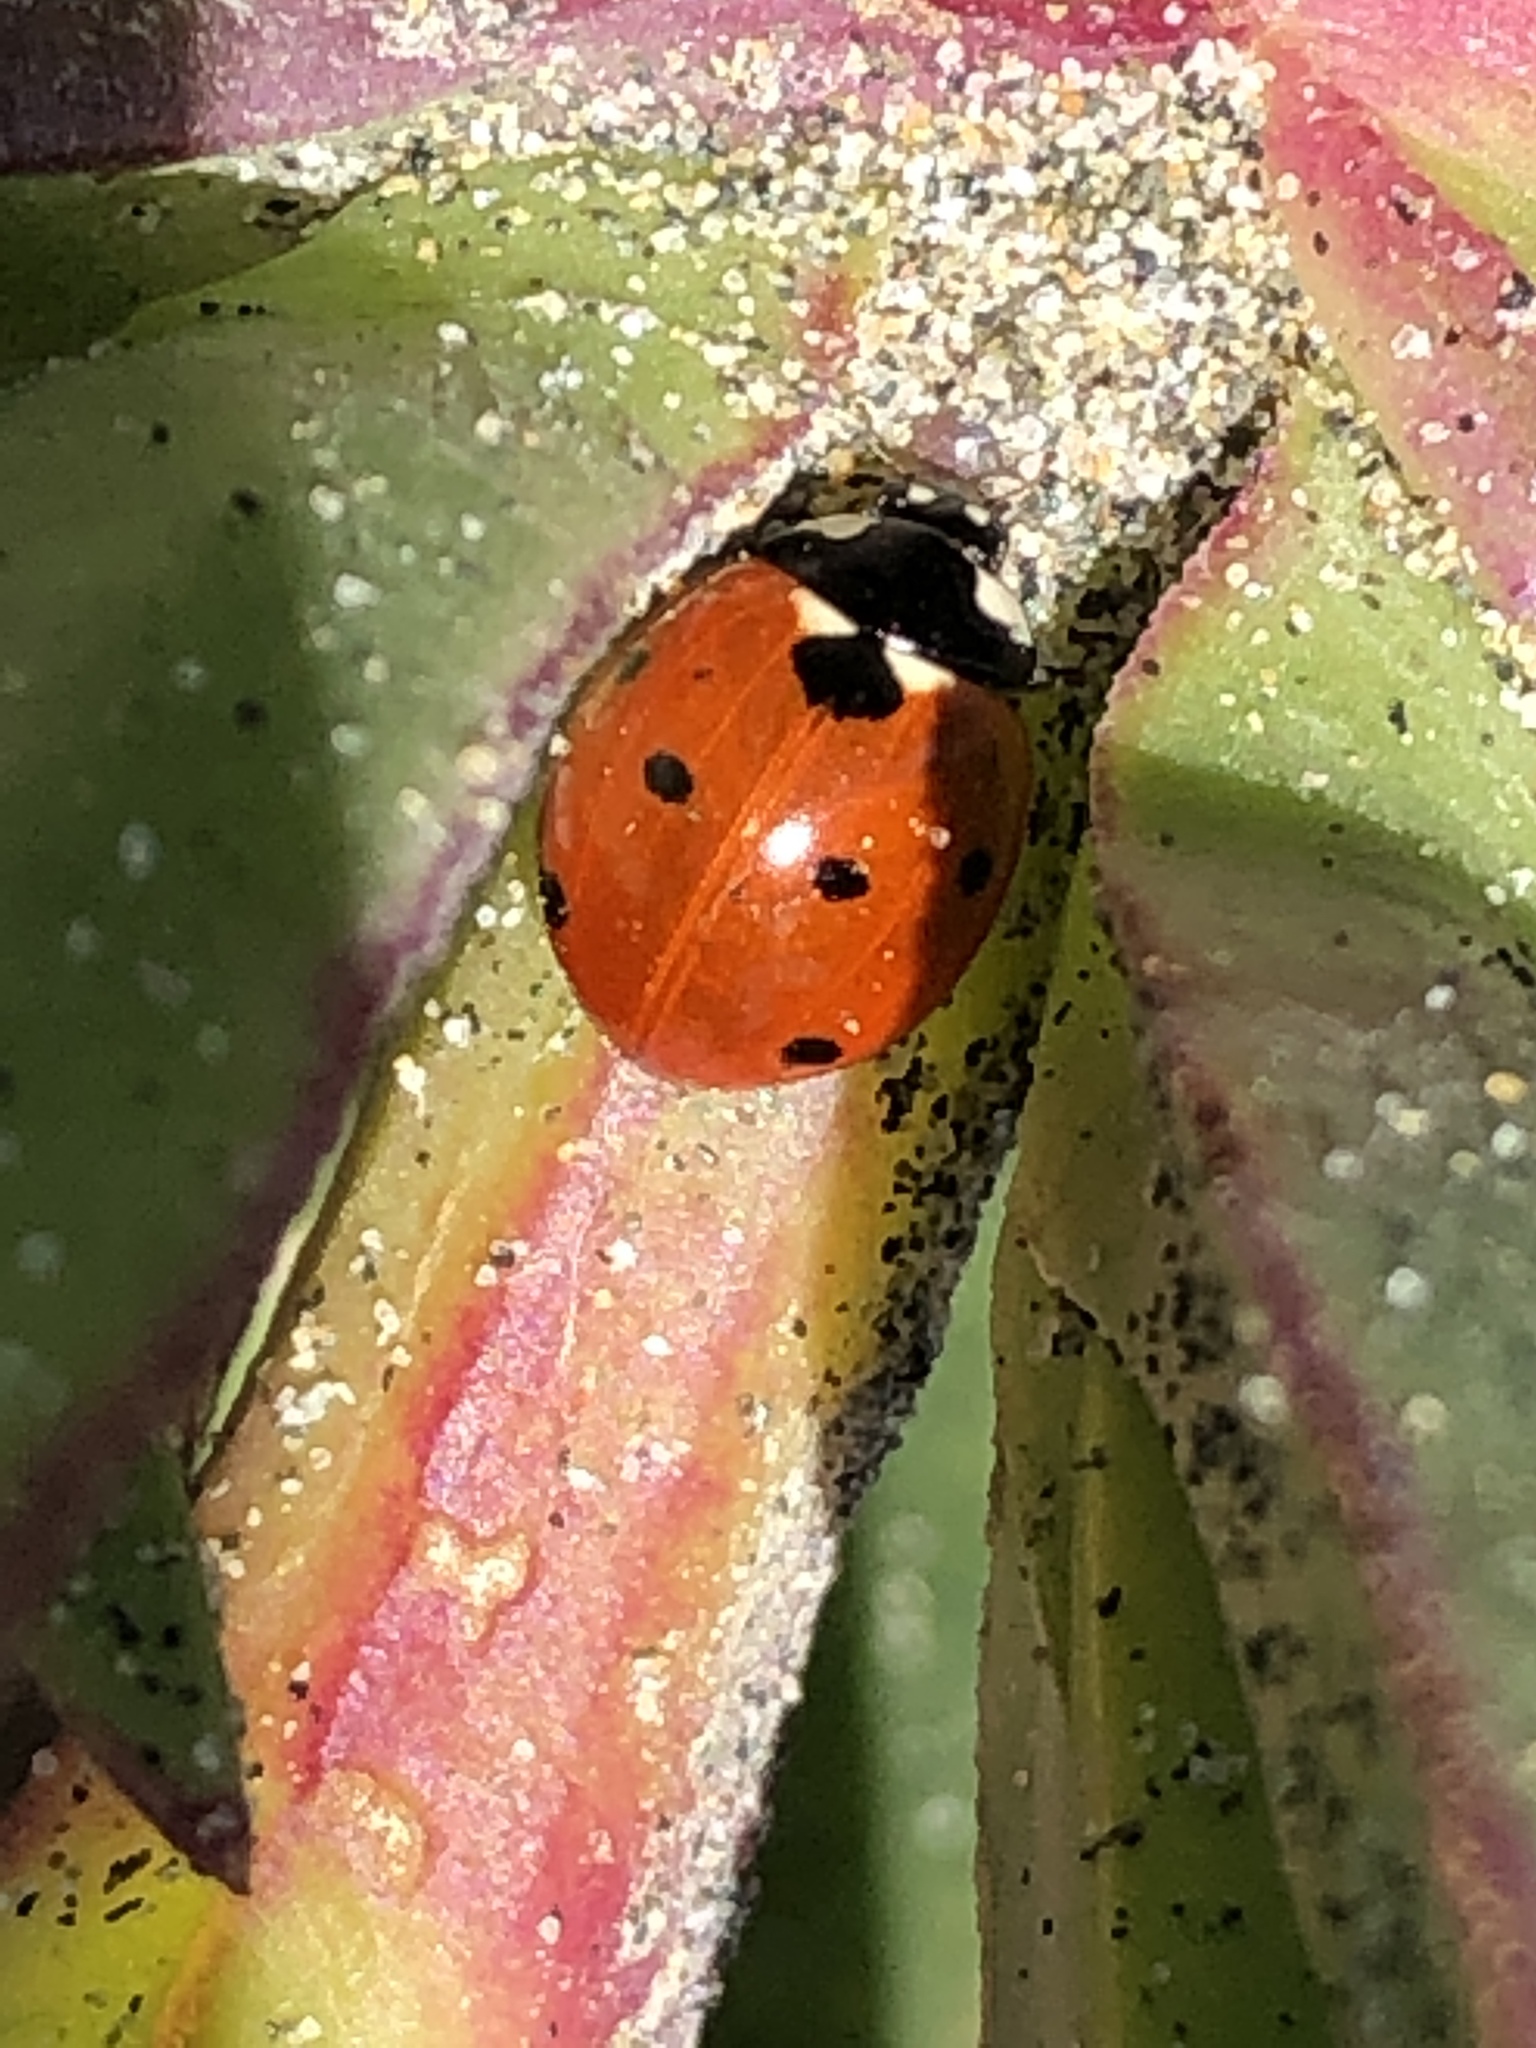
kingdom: Animalia
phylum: Arthropoda
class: Insecta
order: Coleoptera
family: Coccinellidae
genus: Coccinella
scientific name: Coccinella septempunctata
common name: Sevenspotted lady beetle
